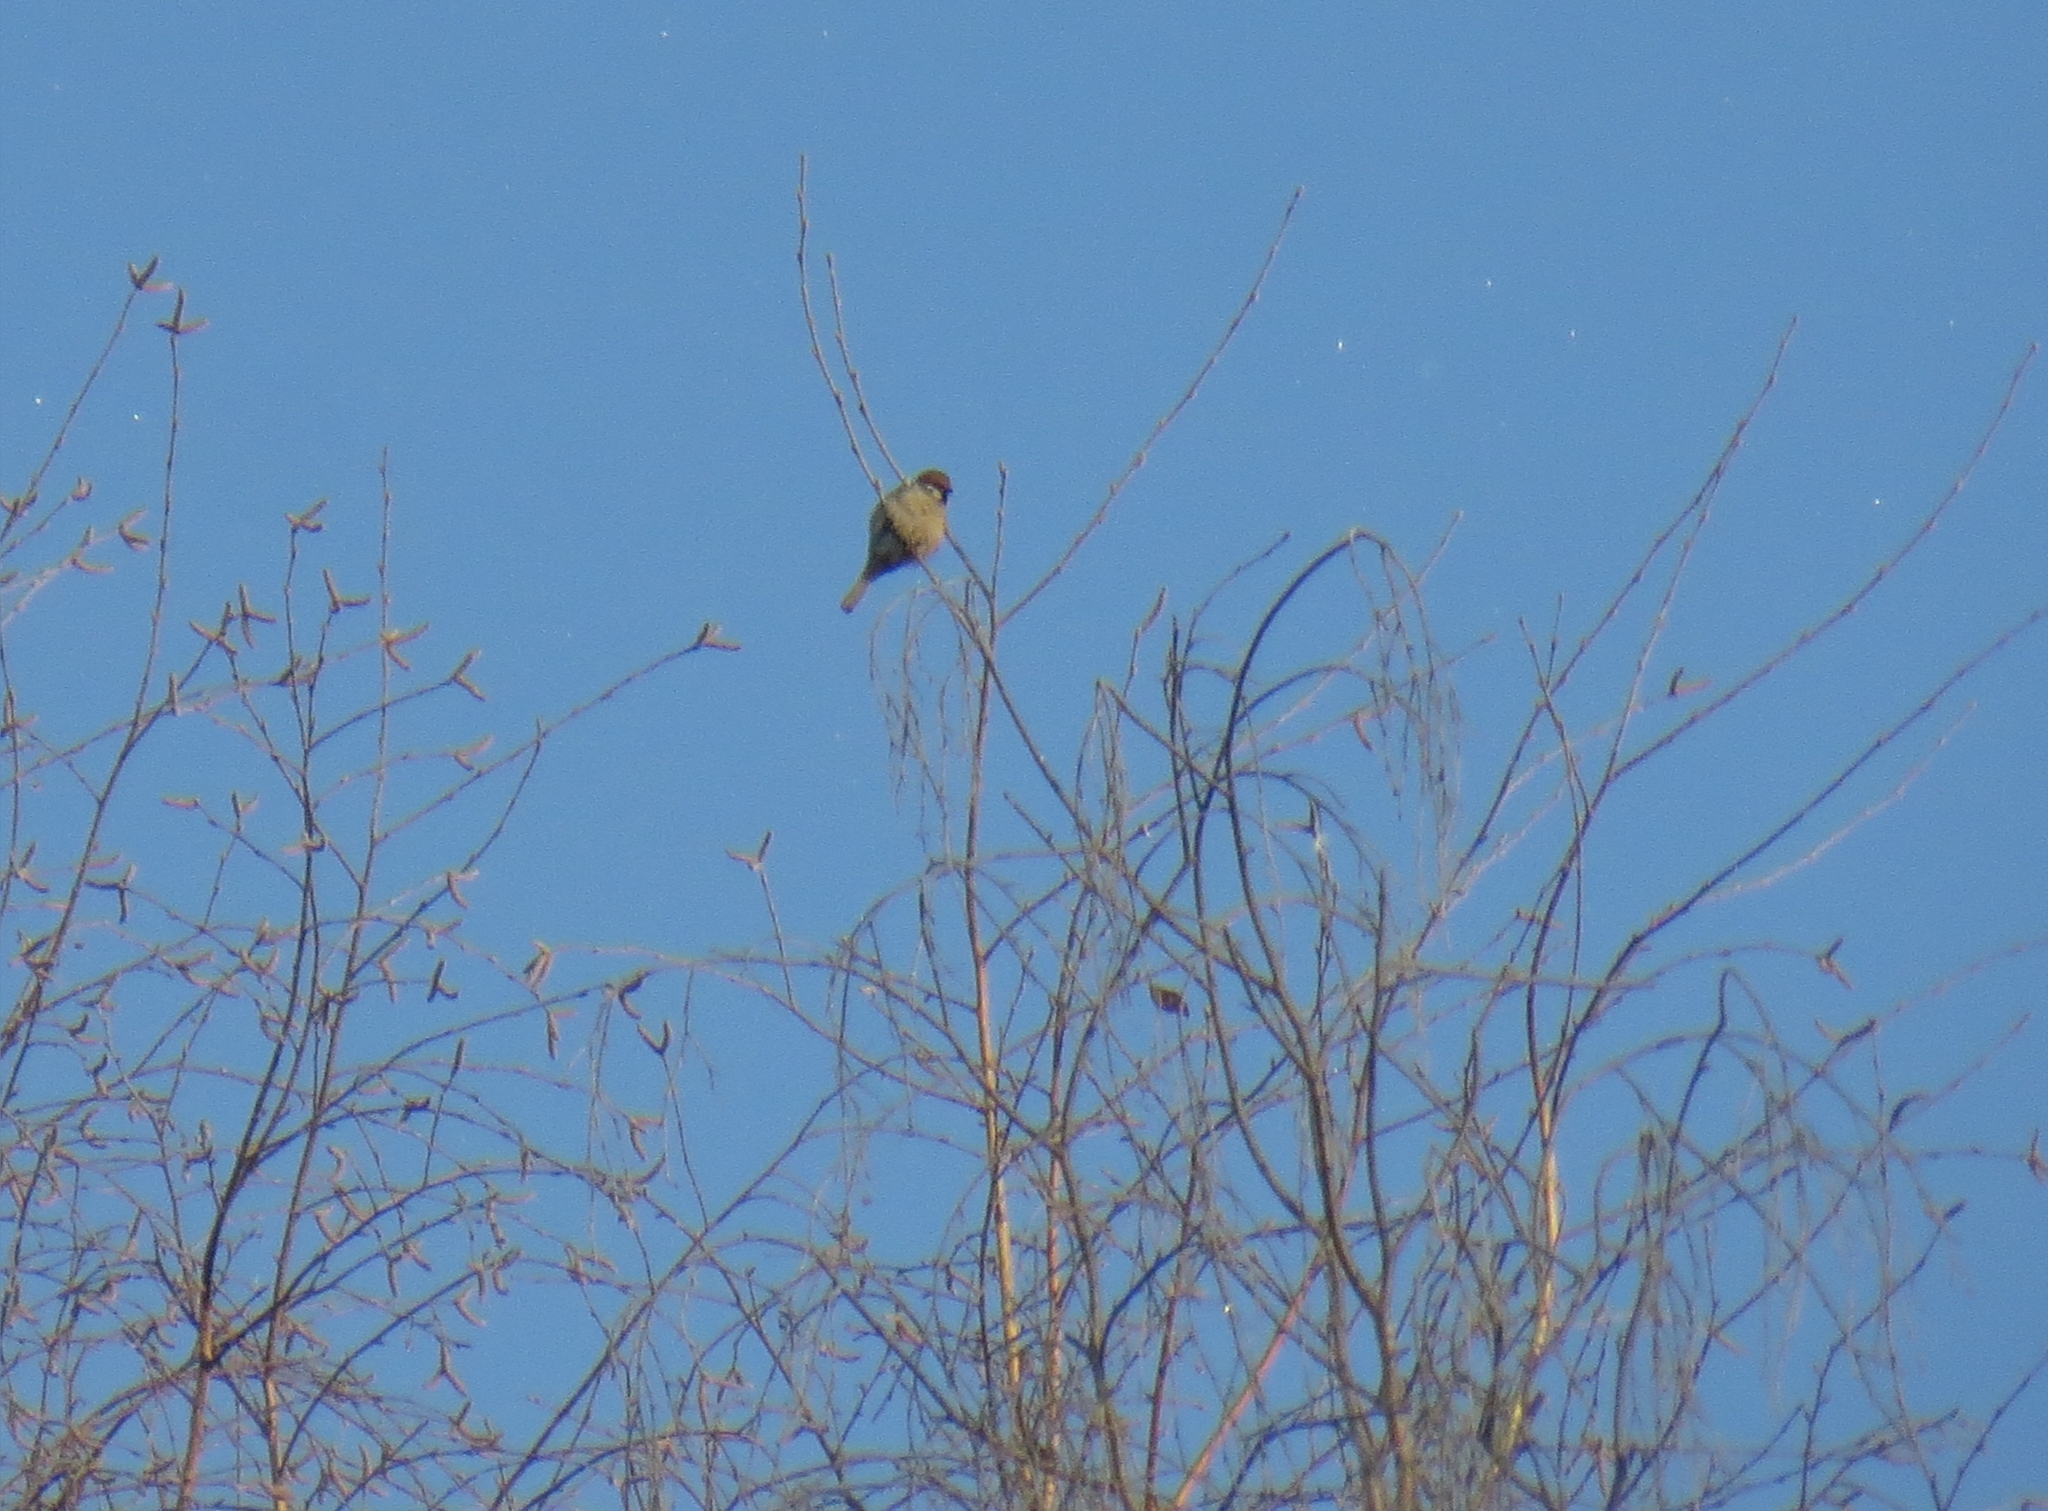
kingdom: Animalia
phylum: Chordata
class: Aves
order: Passeriformes
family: Passeridae
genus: Passer
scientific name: Passer montanus
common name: Eurasian tree sparrow
